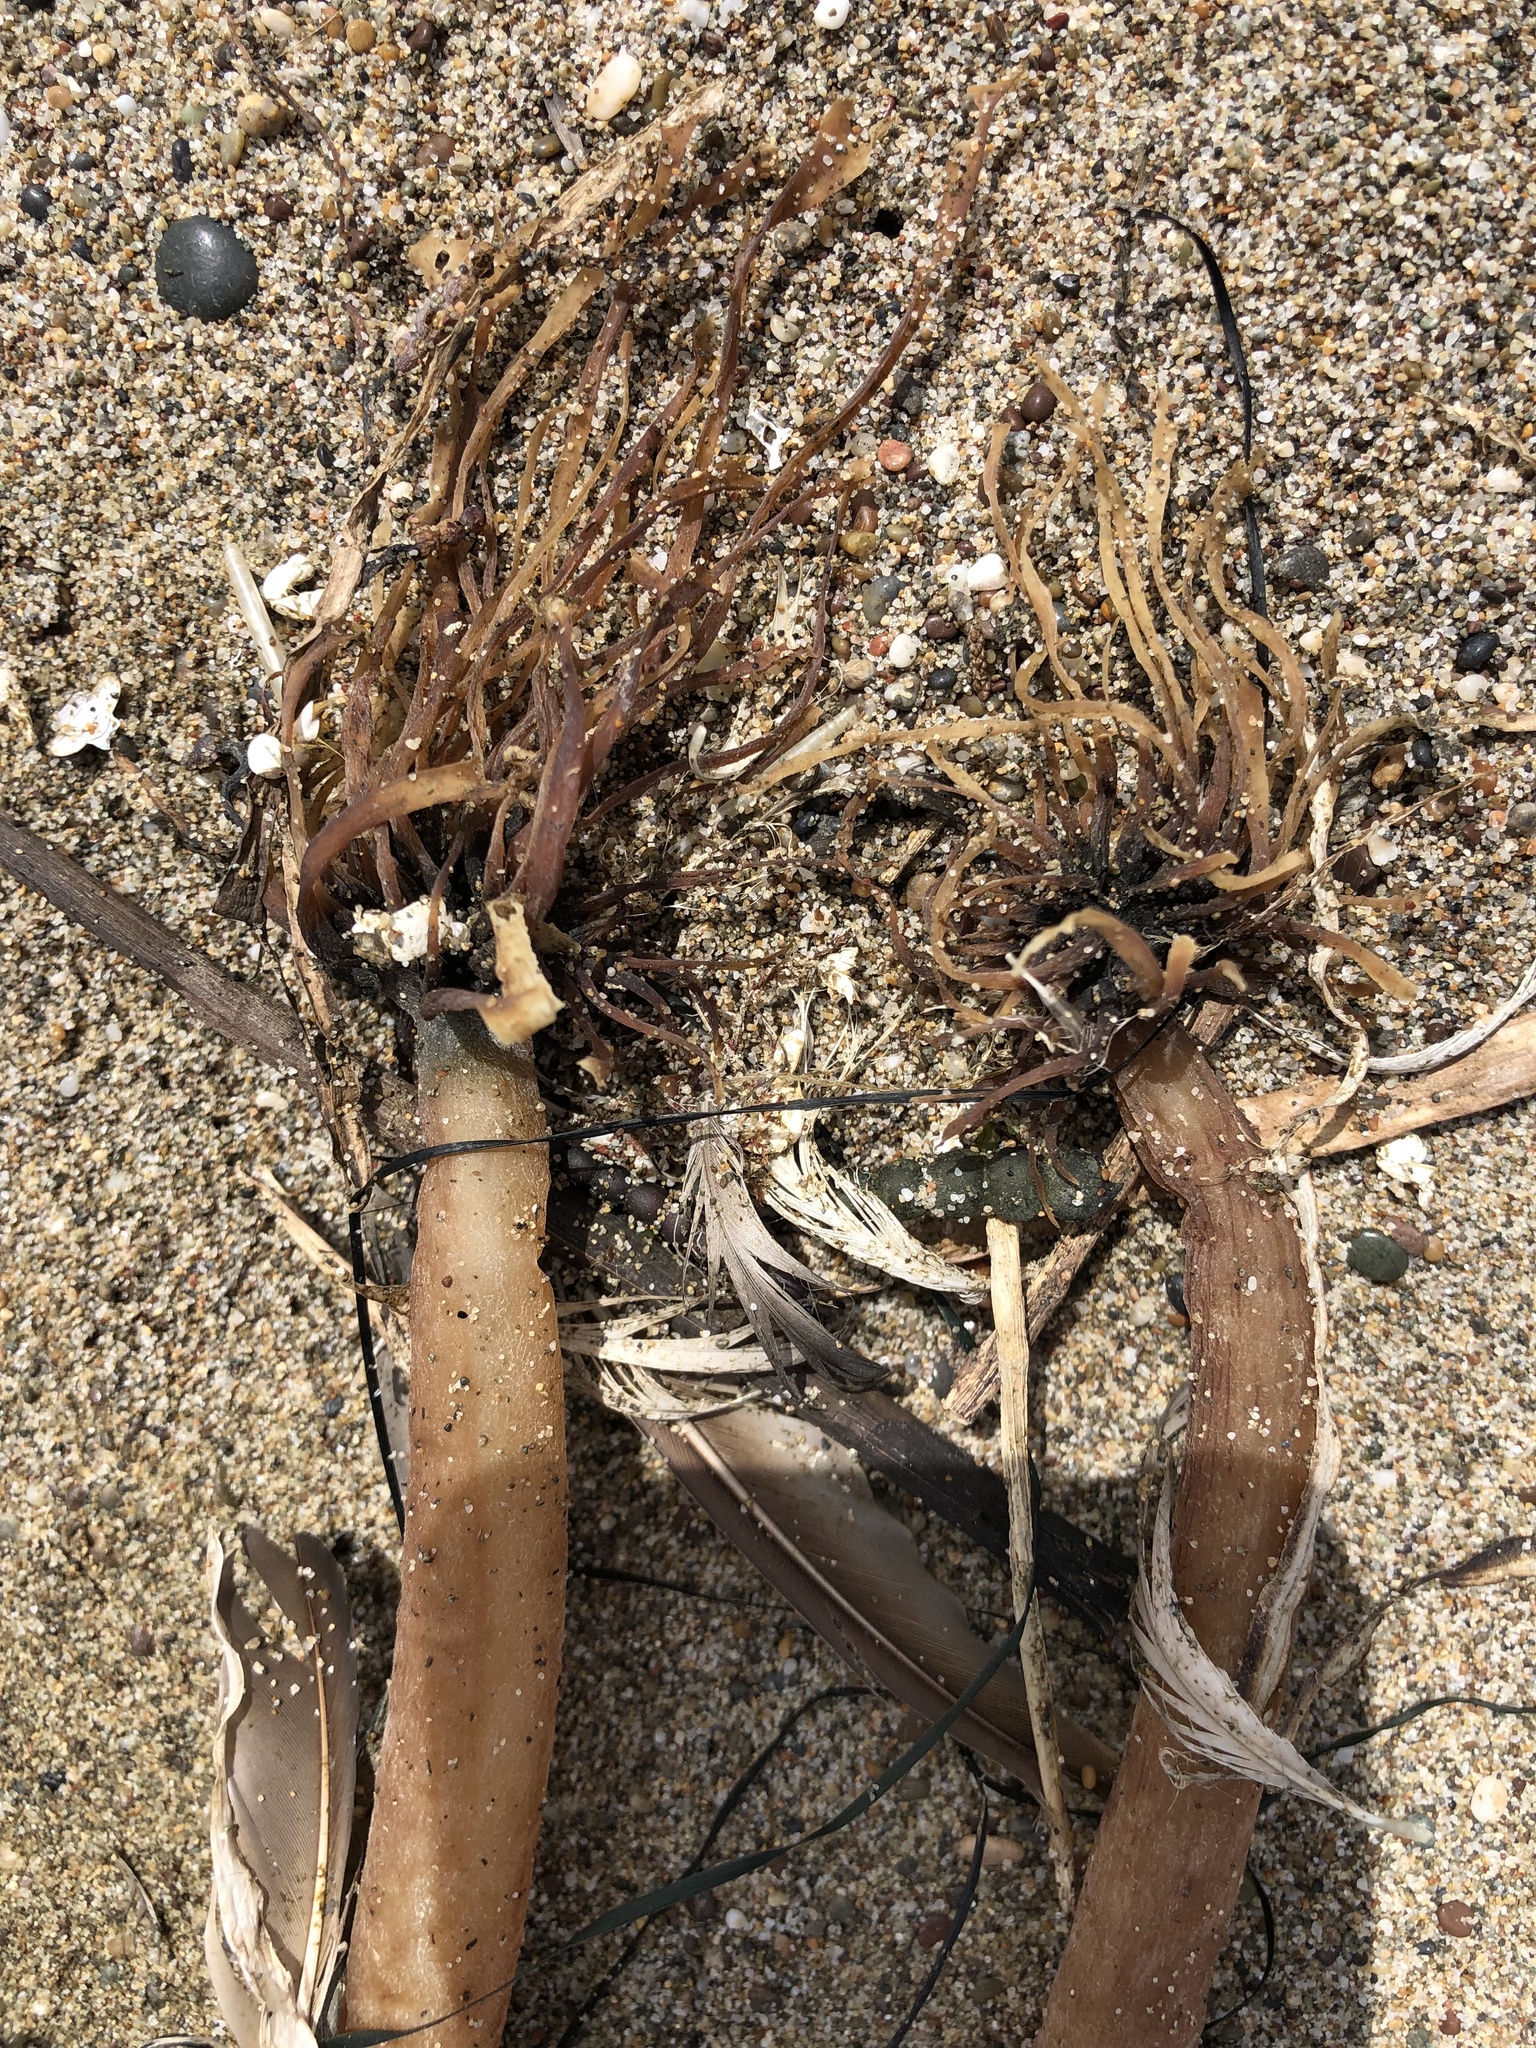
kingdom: Chromista
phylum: Ochrophyta
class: Phaeophyceae
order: Laminariales
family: Laminariaceae
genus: Postelsia
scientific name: Postelsia palmiformis
